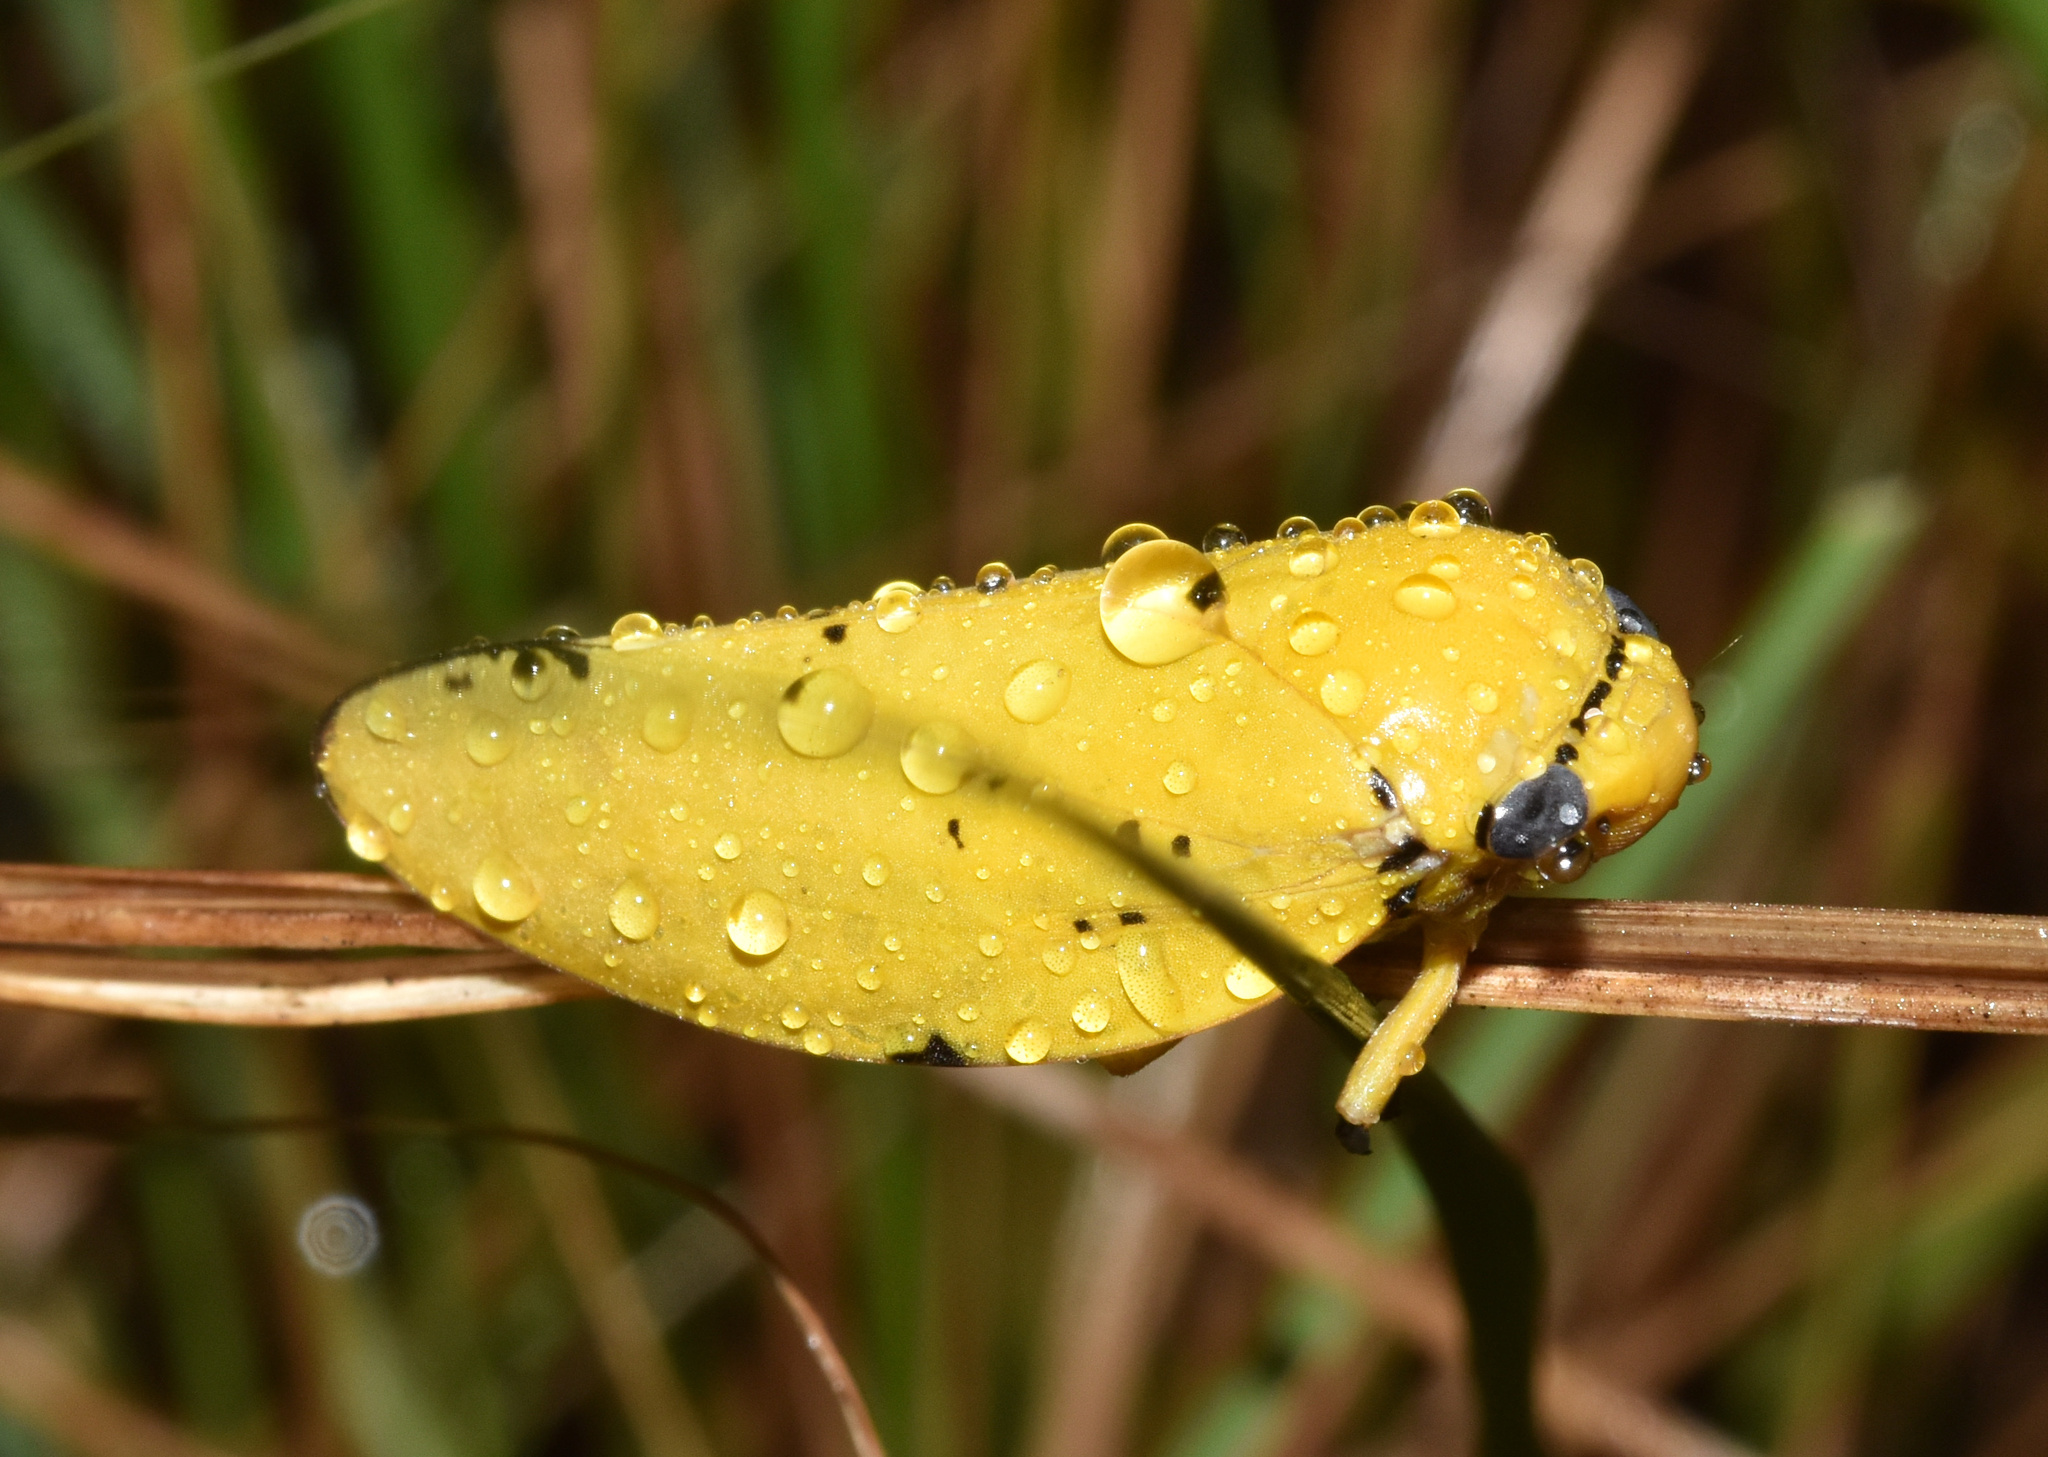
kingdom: Animalia
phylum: Arthropoda
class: Insecta
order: Hemiptera
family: Aphrophoridae
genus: Ptyelus
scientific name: Ptyelus flavescens
